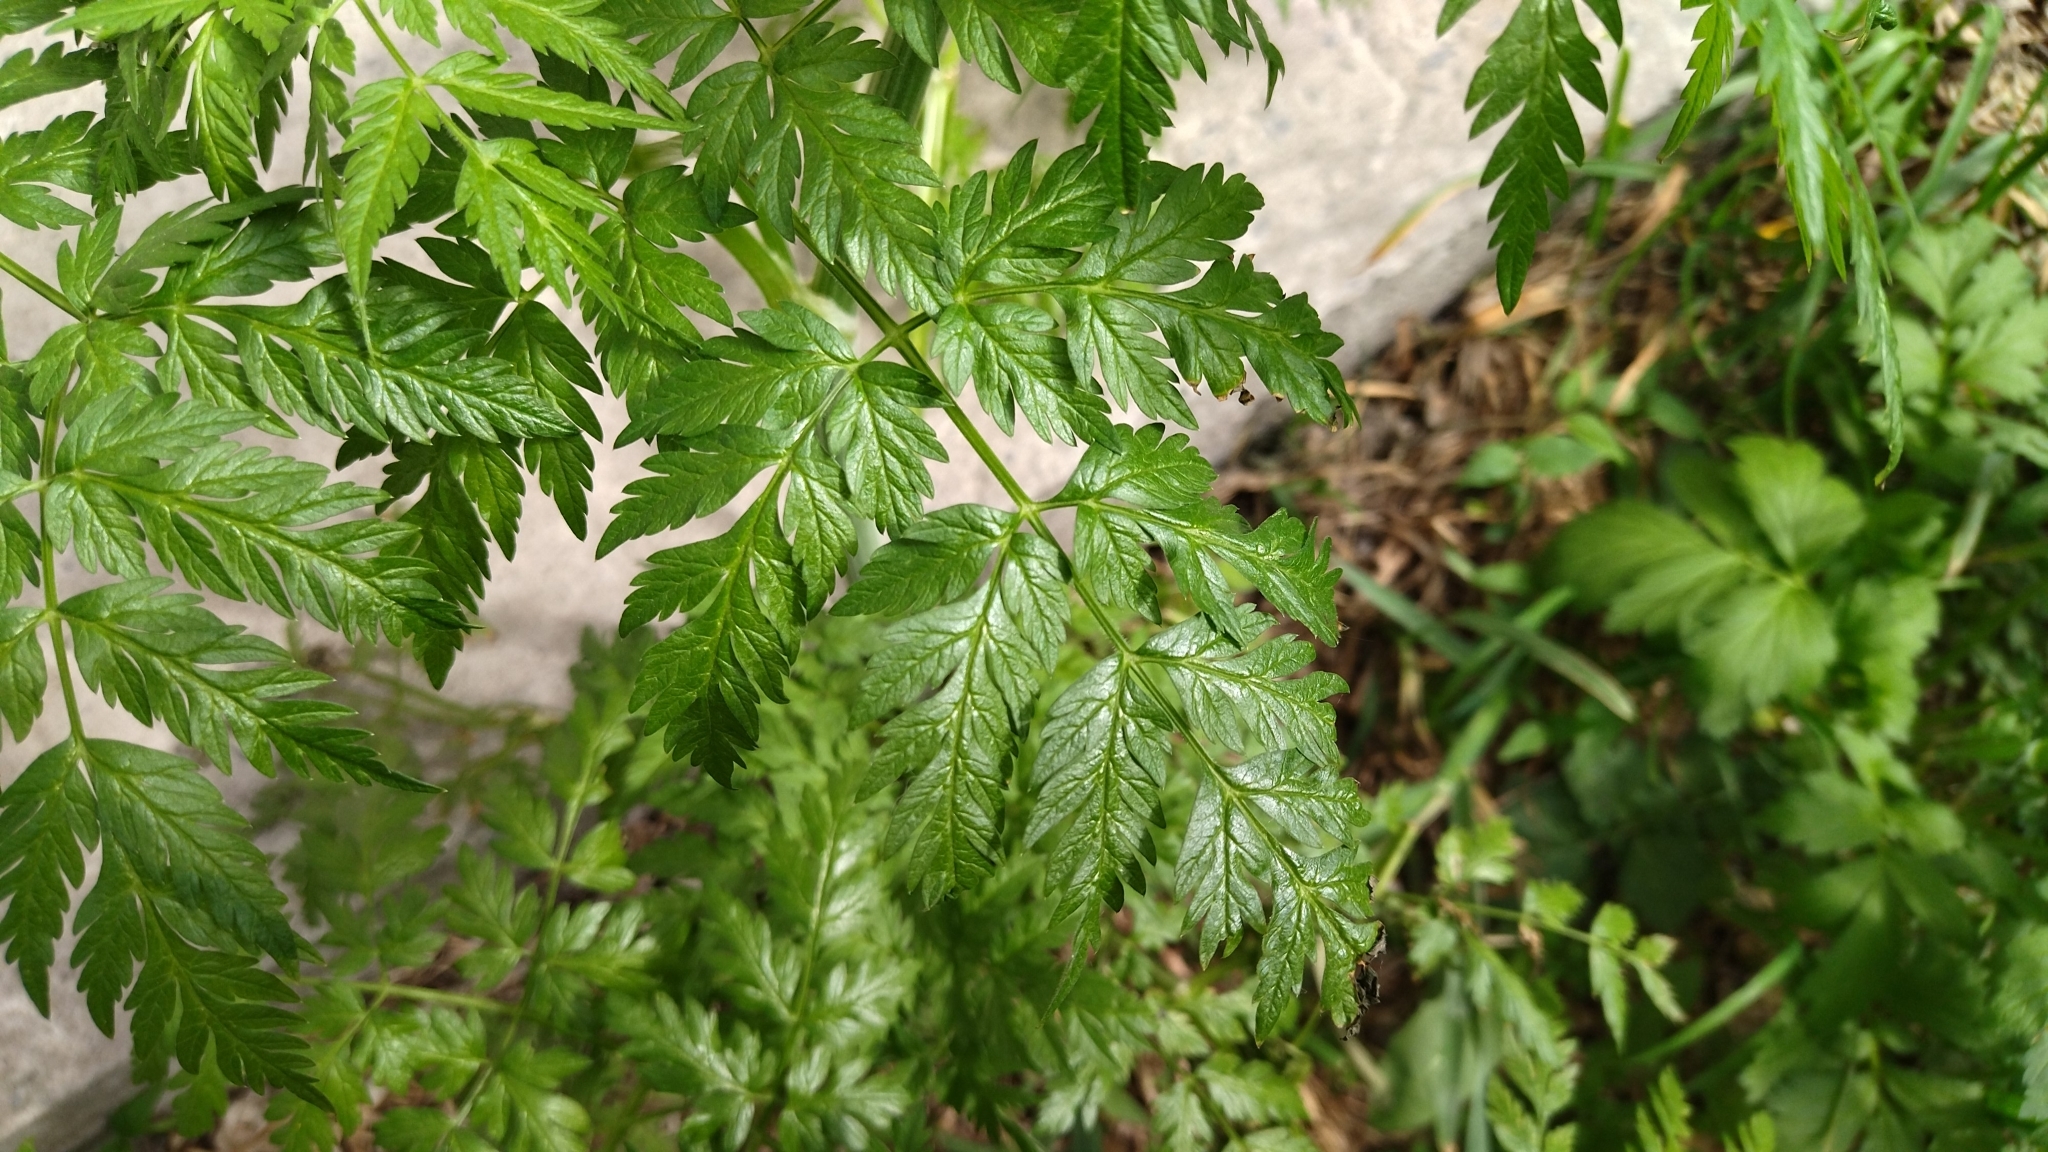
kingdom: Plantae
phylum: Tracheophyta
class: Magnoliopsida
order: Apiales
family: Apiaceae
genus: Anthriscus
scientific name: Anthriscus sylvestris
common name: Cow parsley
